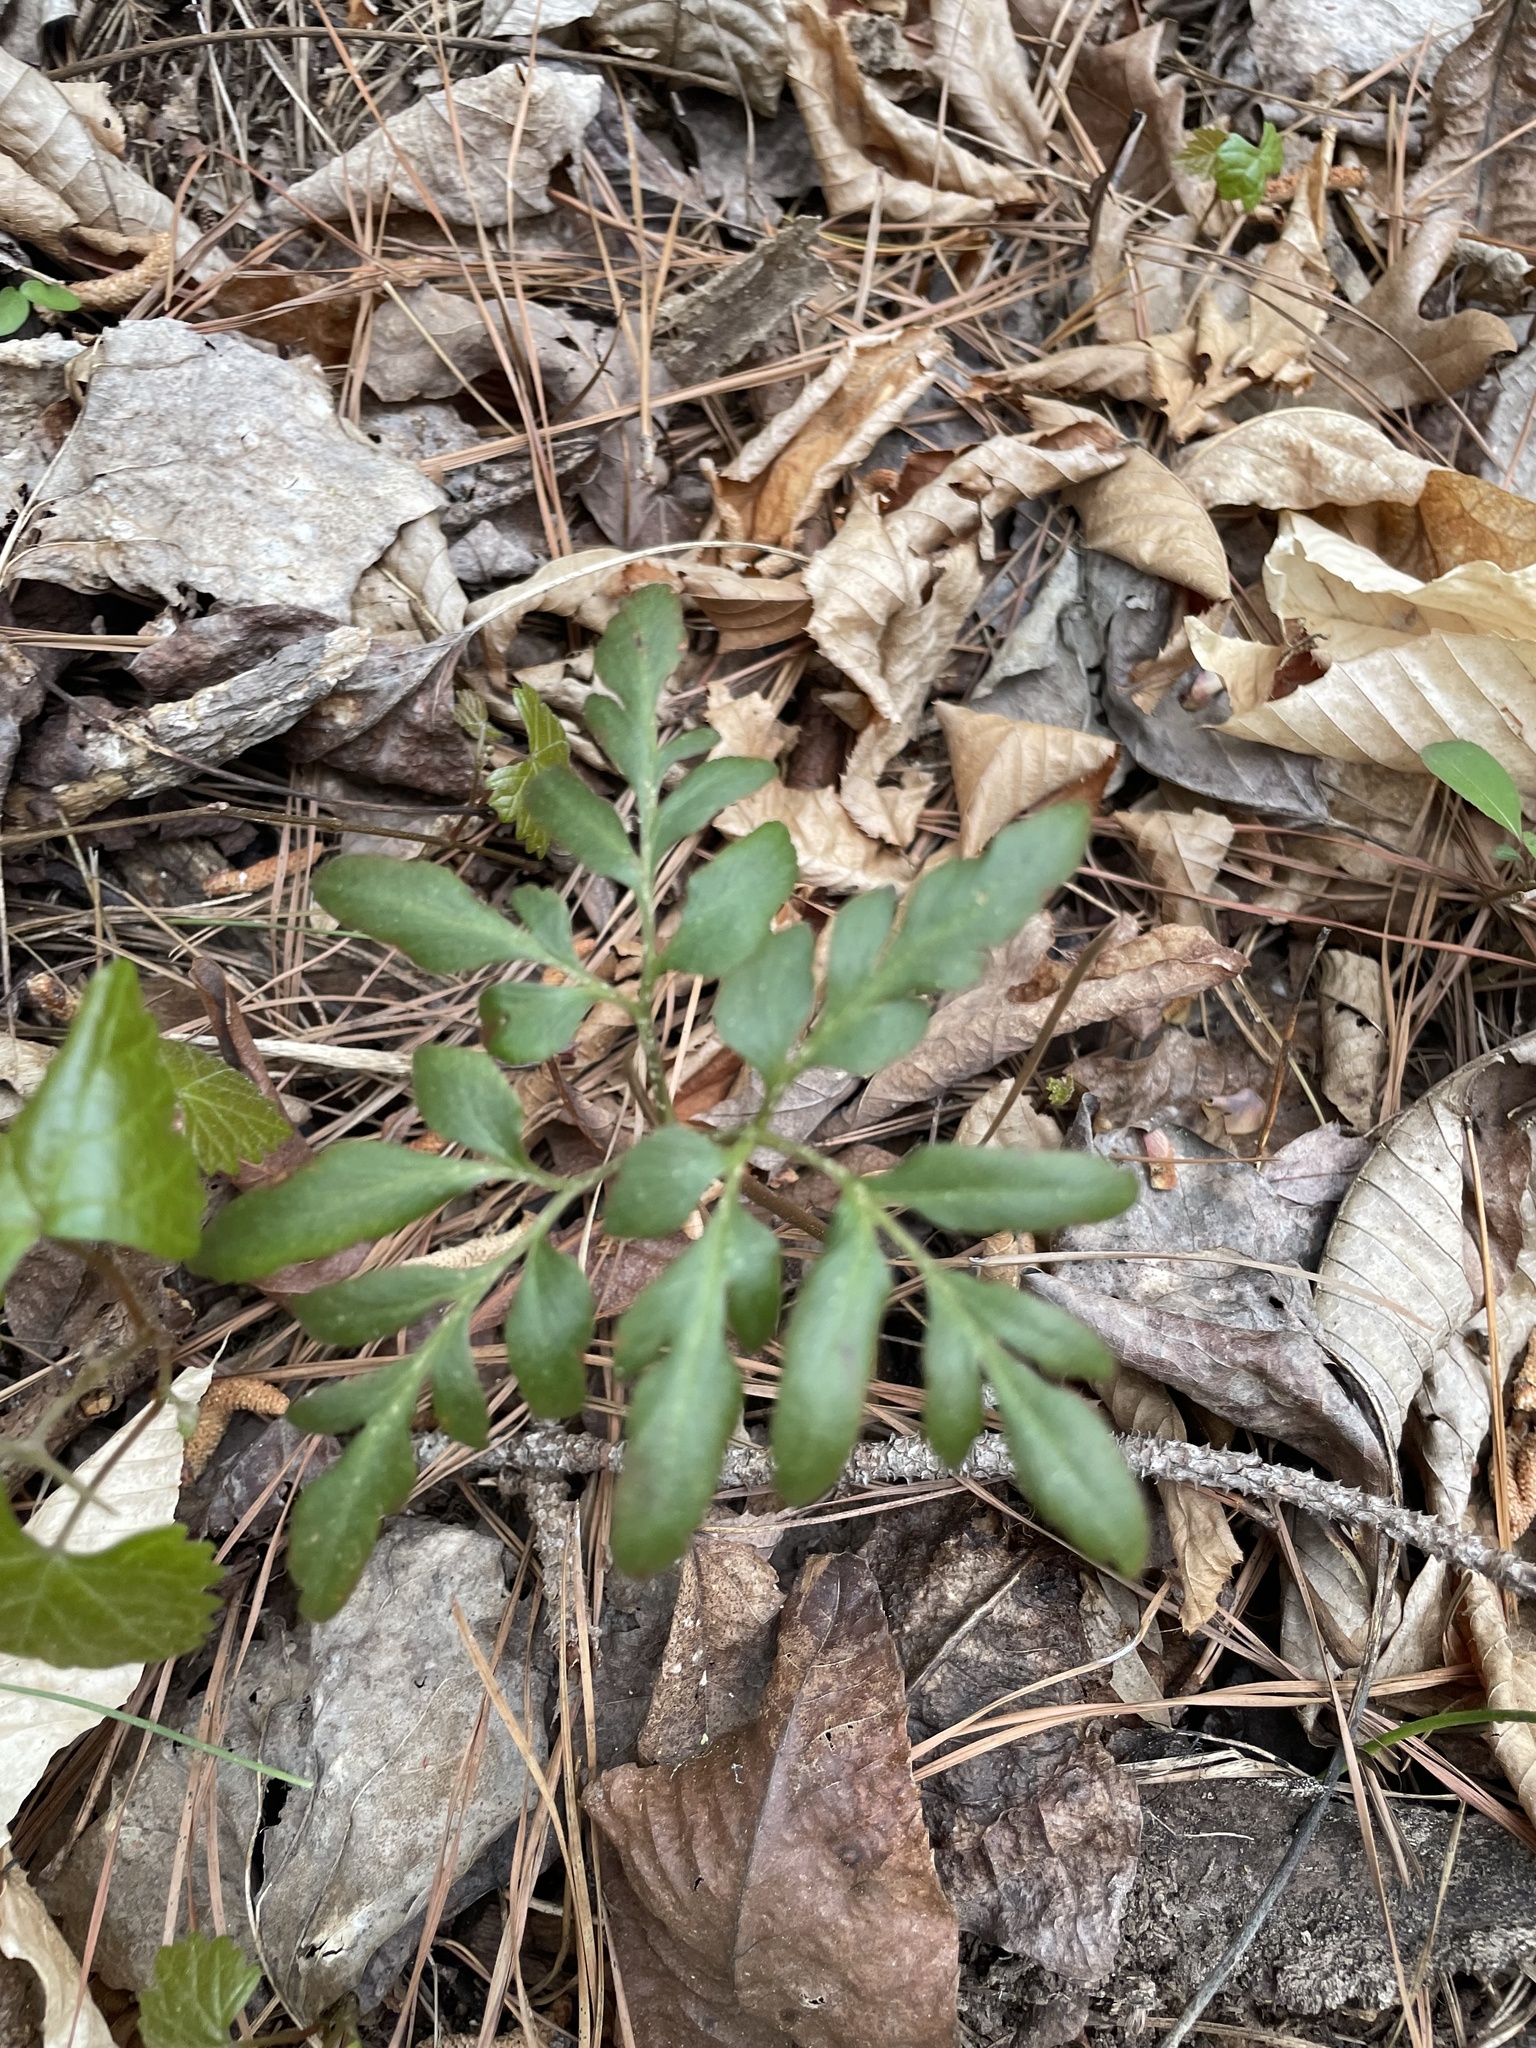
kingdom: Plantae
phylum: Tracheophyta
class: Polypodiopsida
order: Ophioglossales
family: Ophioglossaceae
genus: Sceptridium
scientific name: Sceptridium biternatum
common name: Sparse-lobed grapefern
